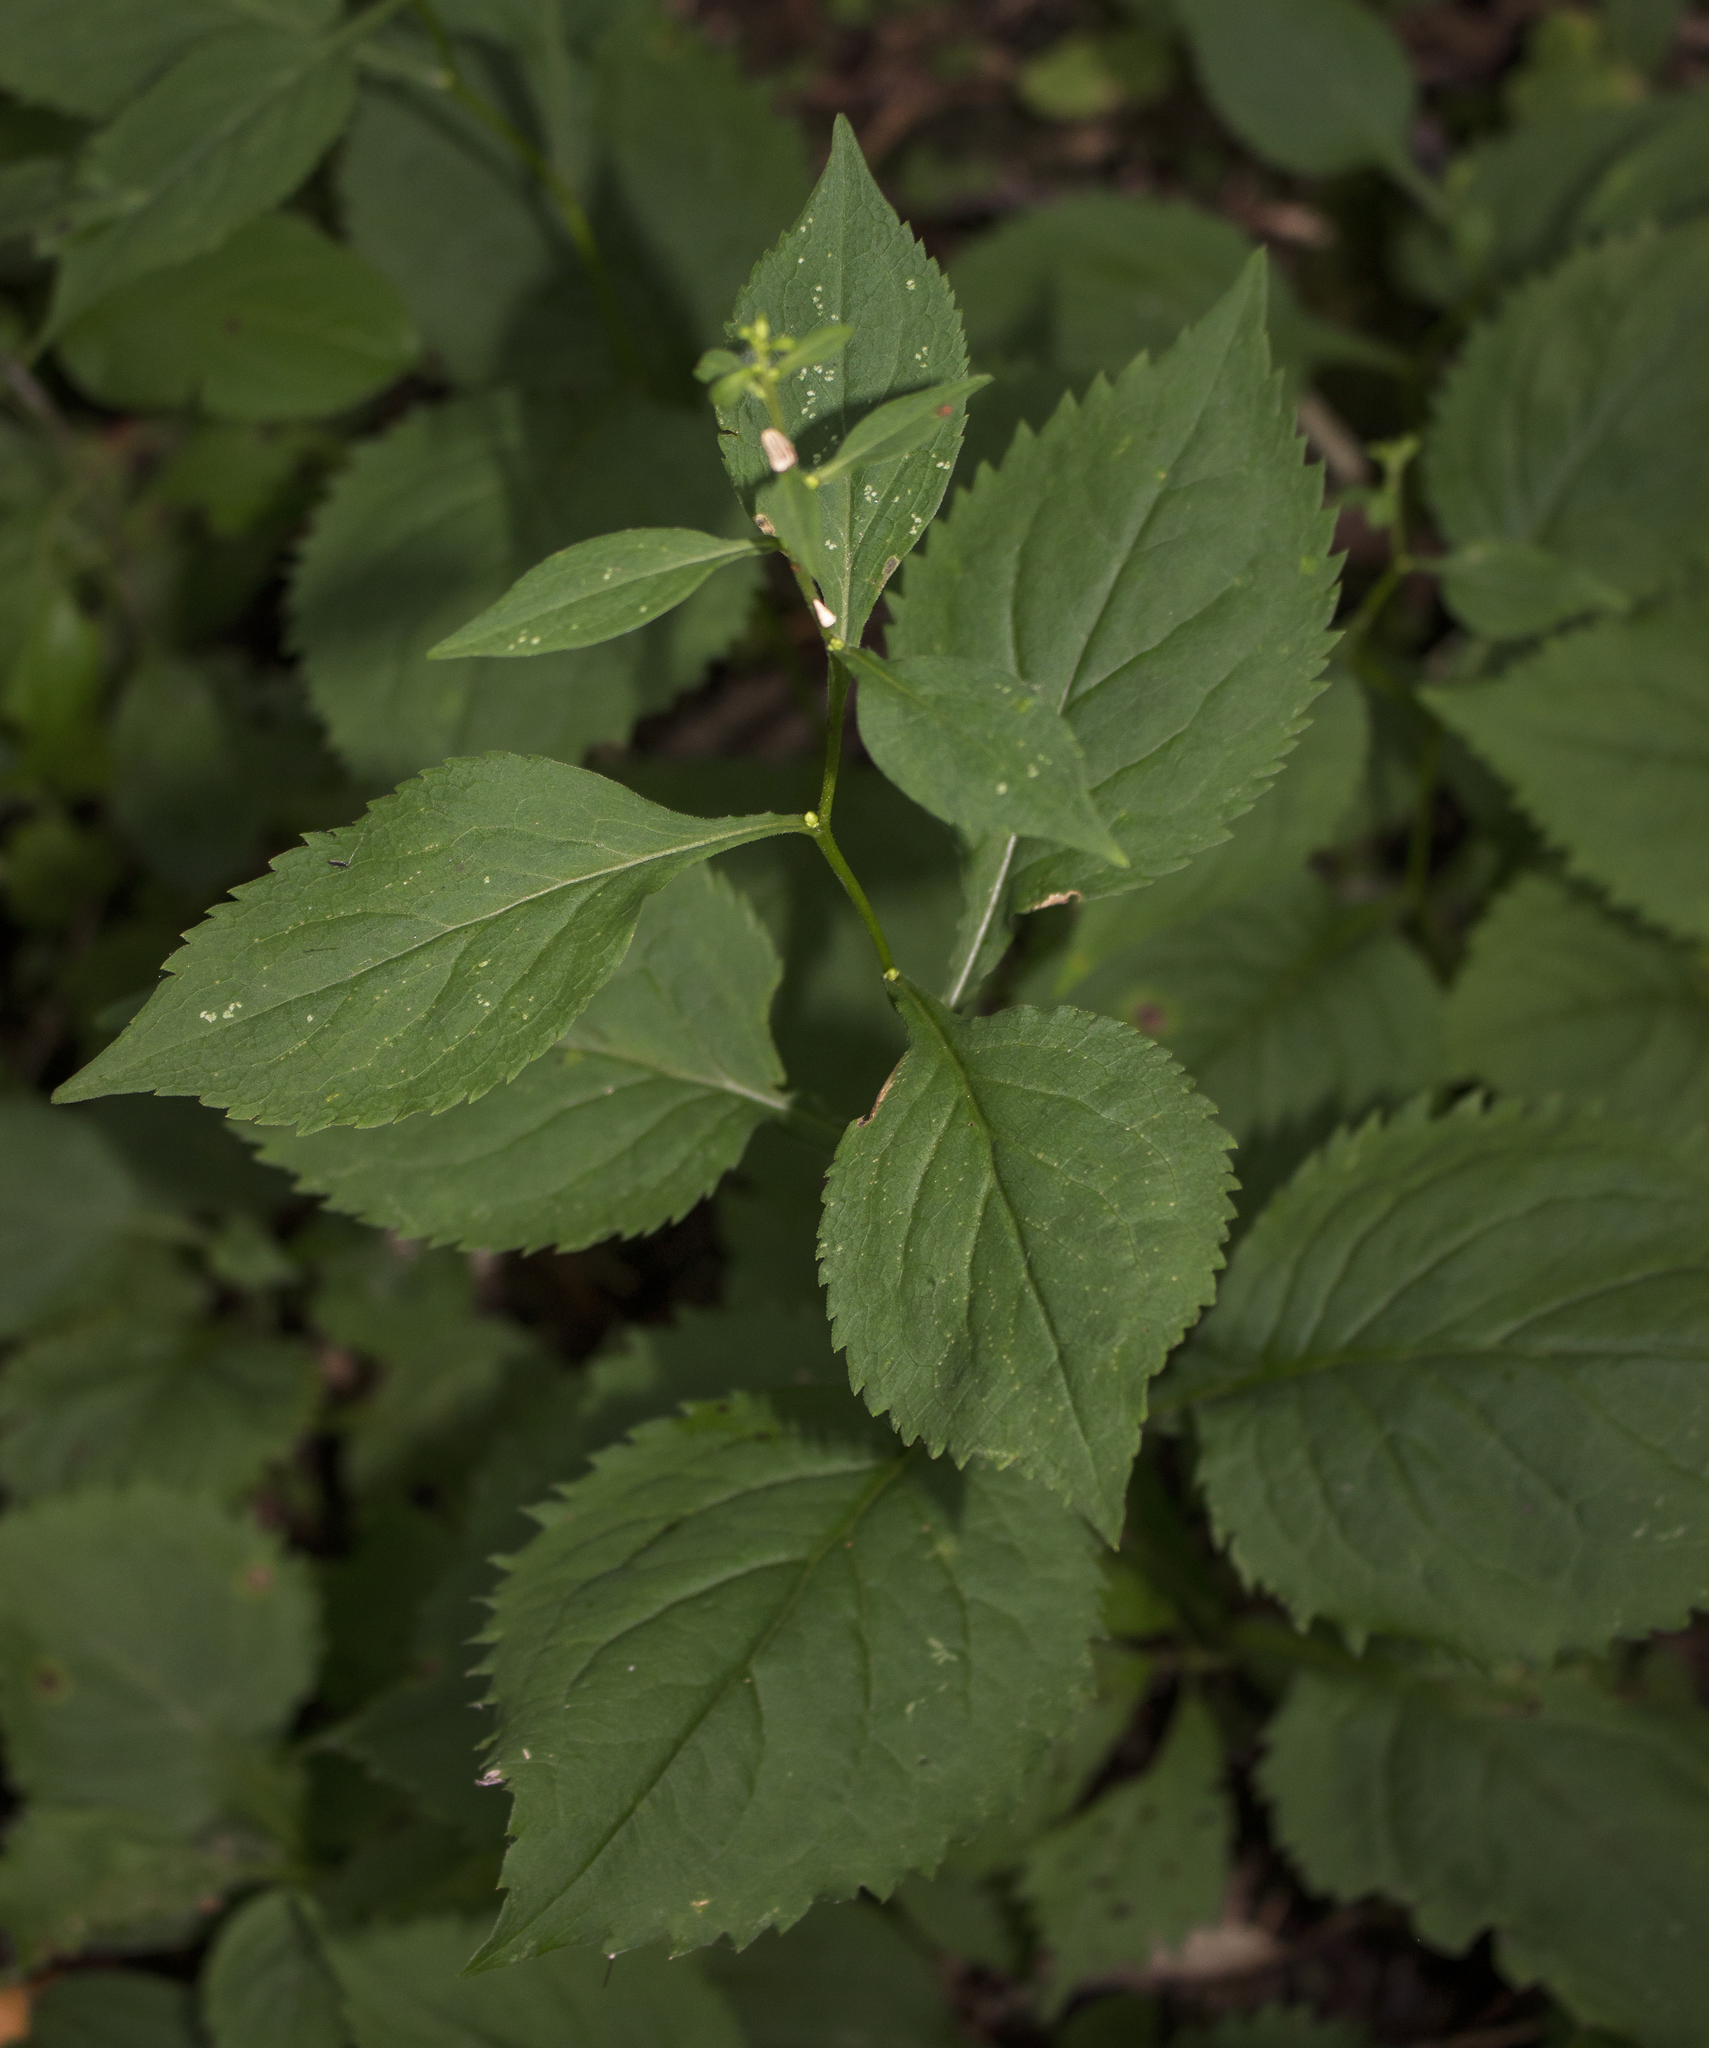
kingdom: Plantae
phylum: Tracheophyta
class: Magnoliopsida
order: Asterales
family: Asteraceae
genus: Solidago
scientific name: Solidago flexicaulis
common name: Zig-zag goldenrod
